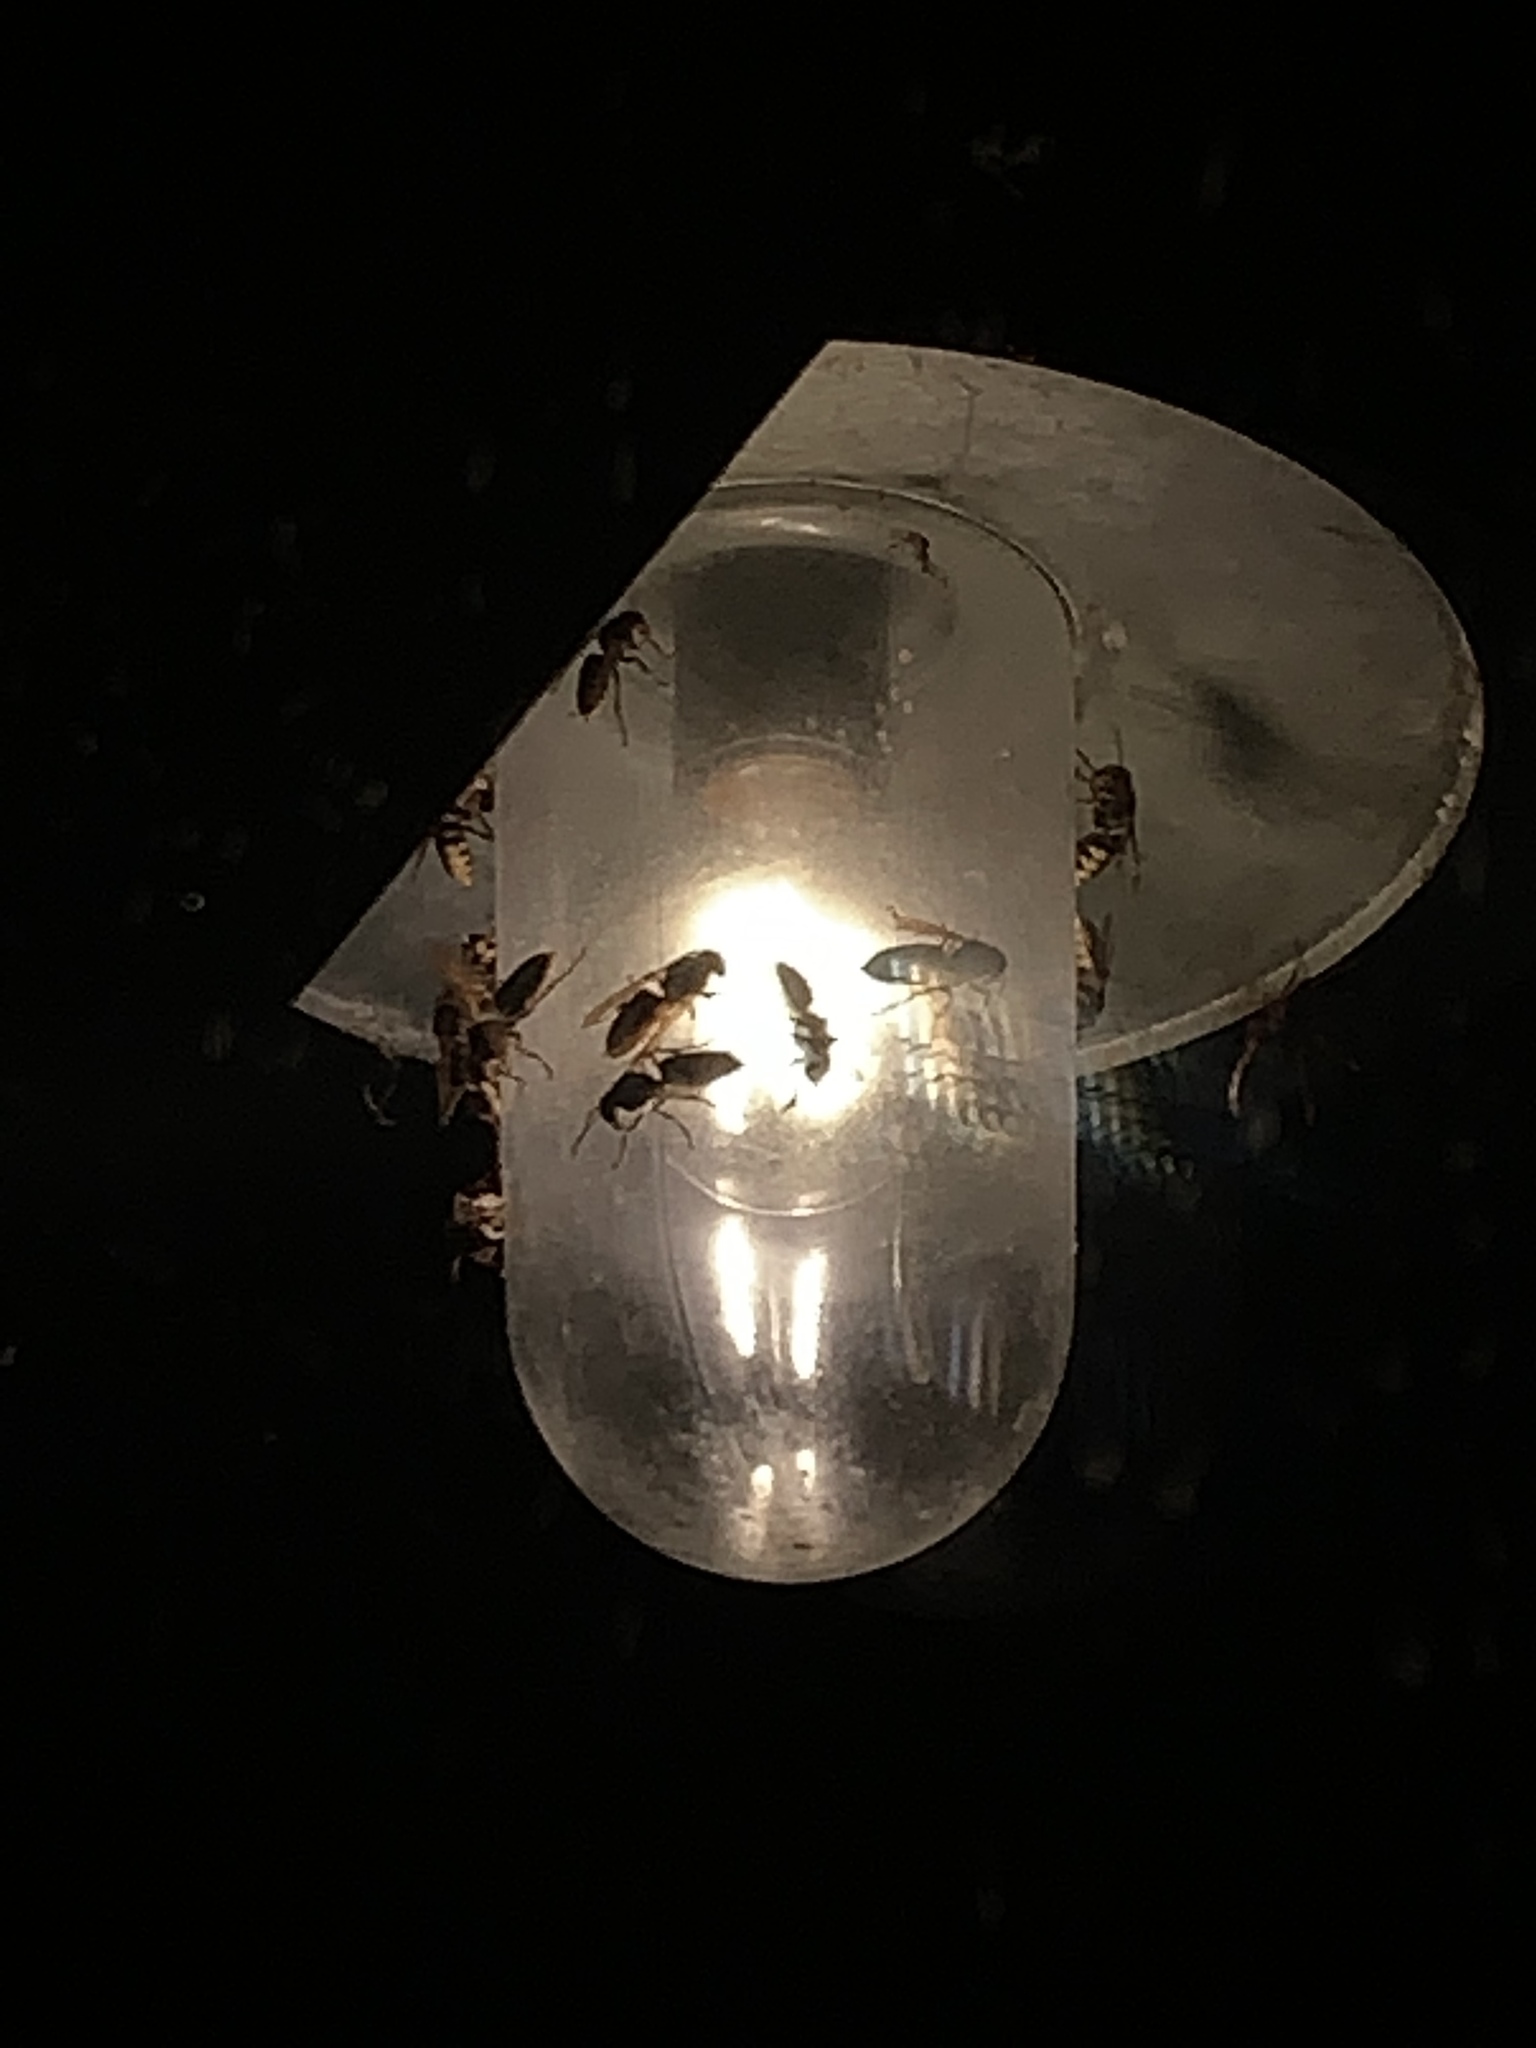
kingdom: Animalia
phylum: Arthropoda
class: Insecta
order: Hymenoptera
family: Vespidae
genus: Vespa
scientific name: Vespa crabro
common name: Hornet
